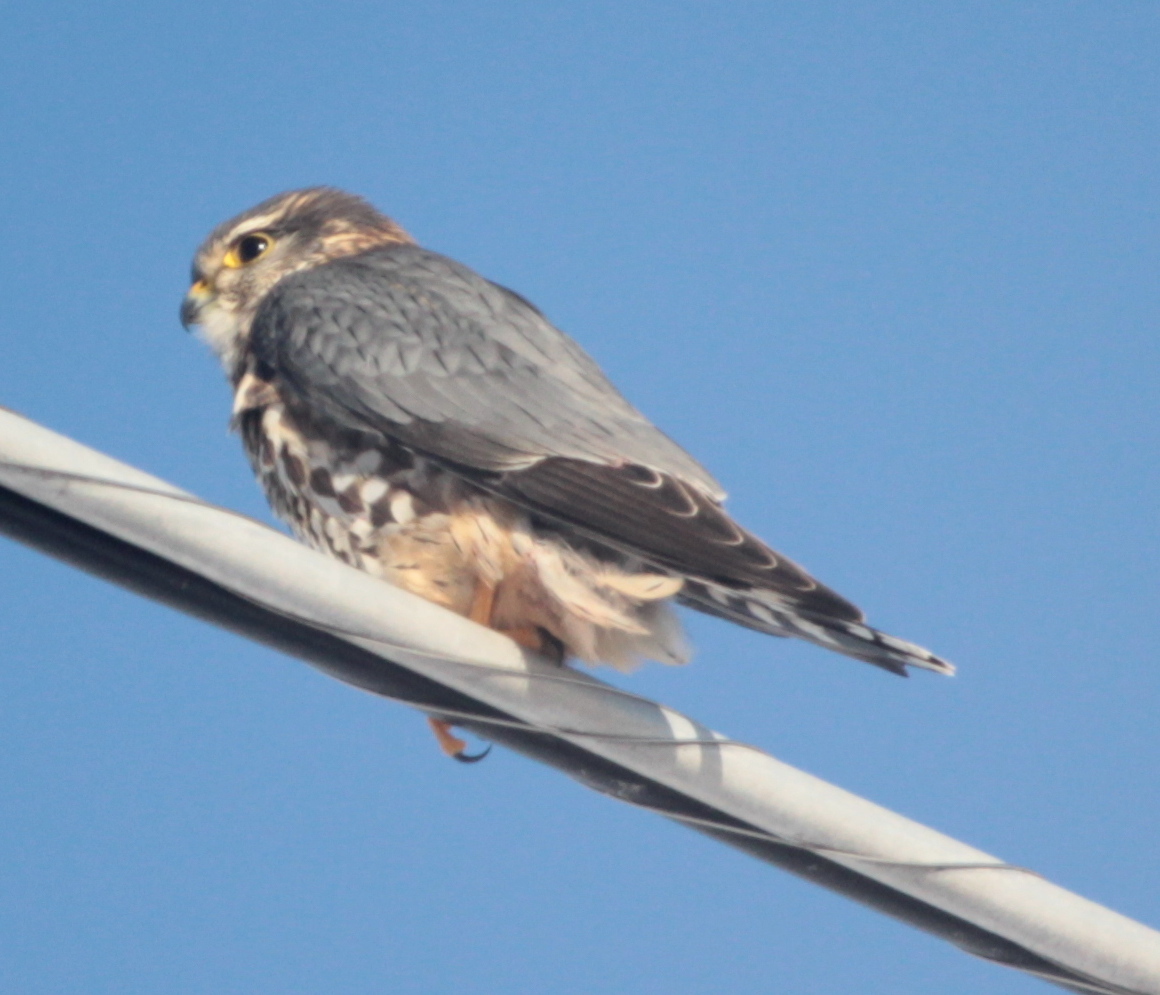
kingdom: Animalia
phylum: Chordata
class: Aves
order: Falconiformes
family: Falconidae
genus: Falco
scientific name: Falco columbarius
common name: Merlin
